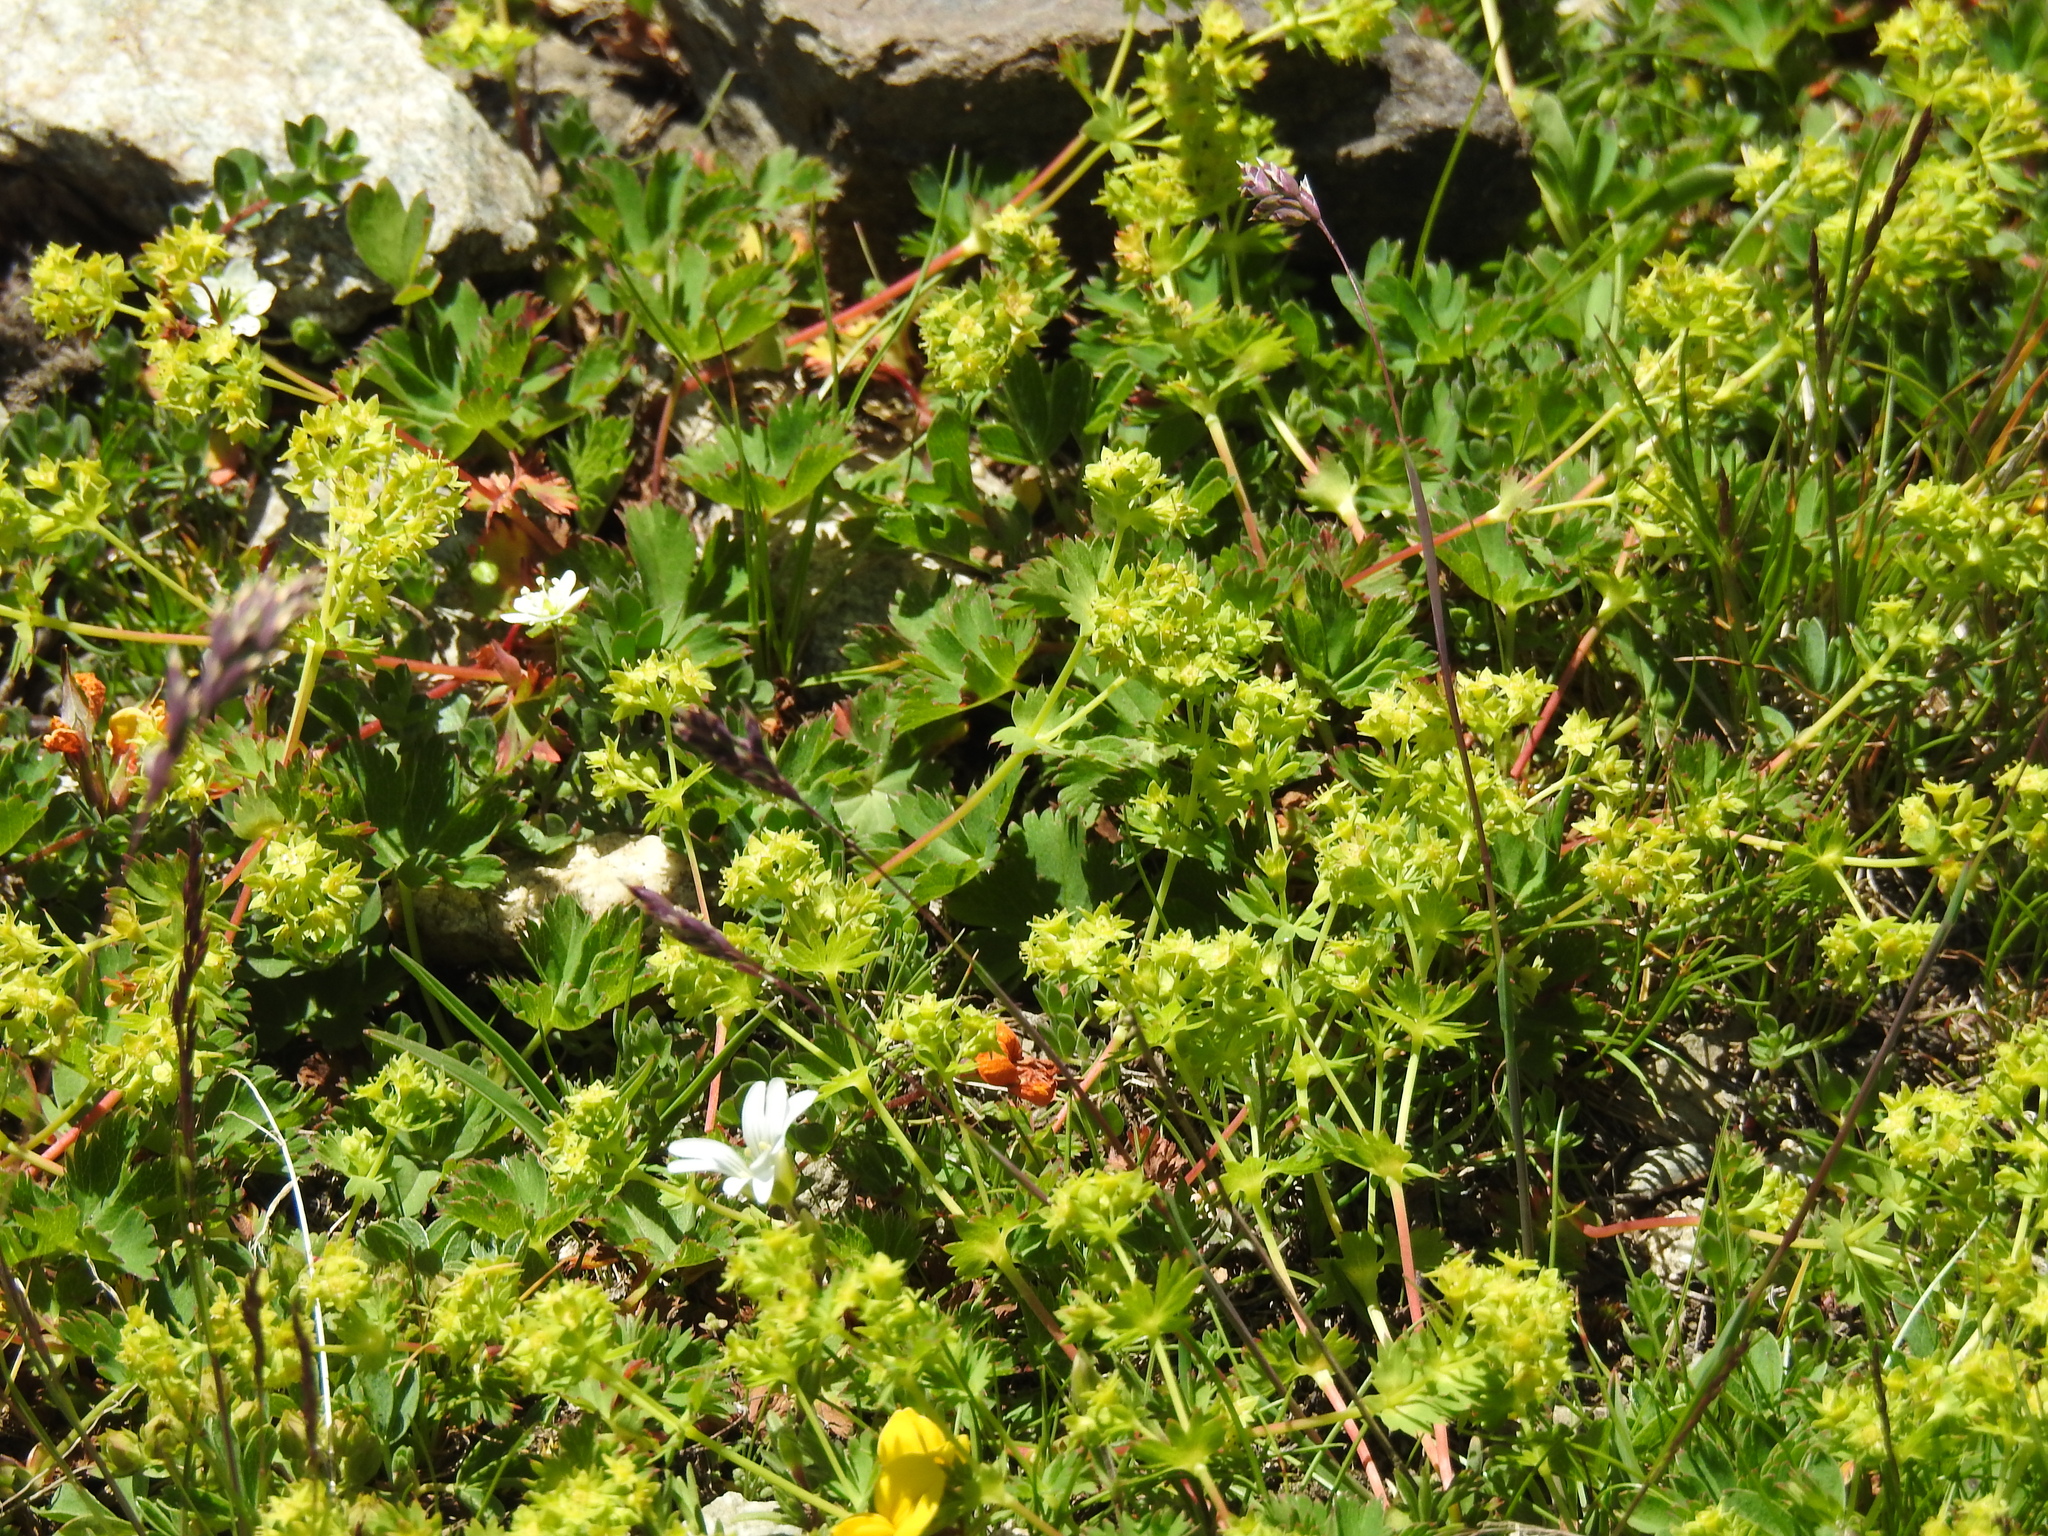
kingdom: Plantae
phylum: Tracheophyta
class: Magnoliopsida
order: Rosales
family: Rosaceae
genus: Alchemilla
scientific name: Alchemilla fissa
